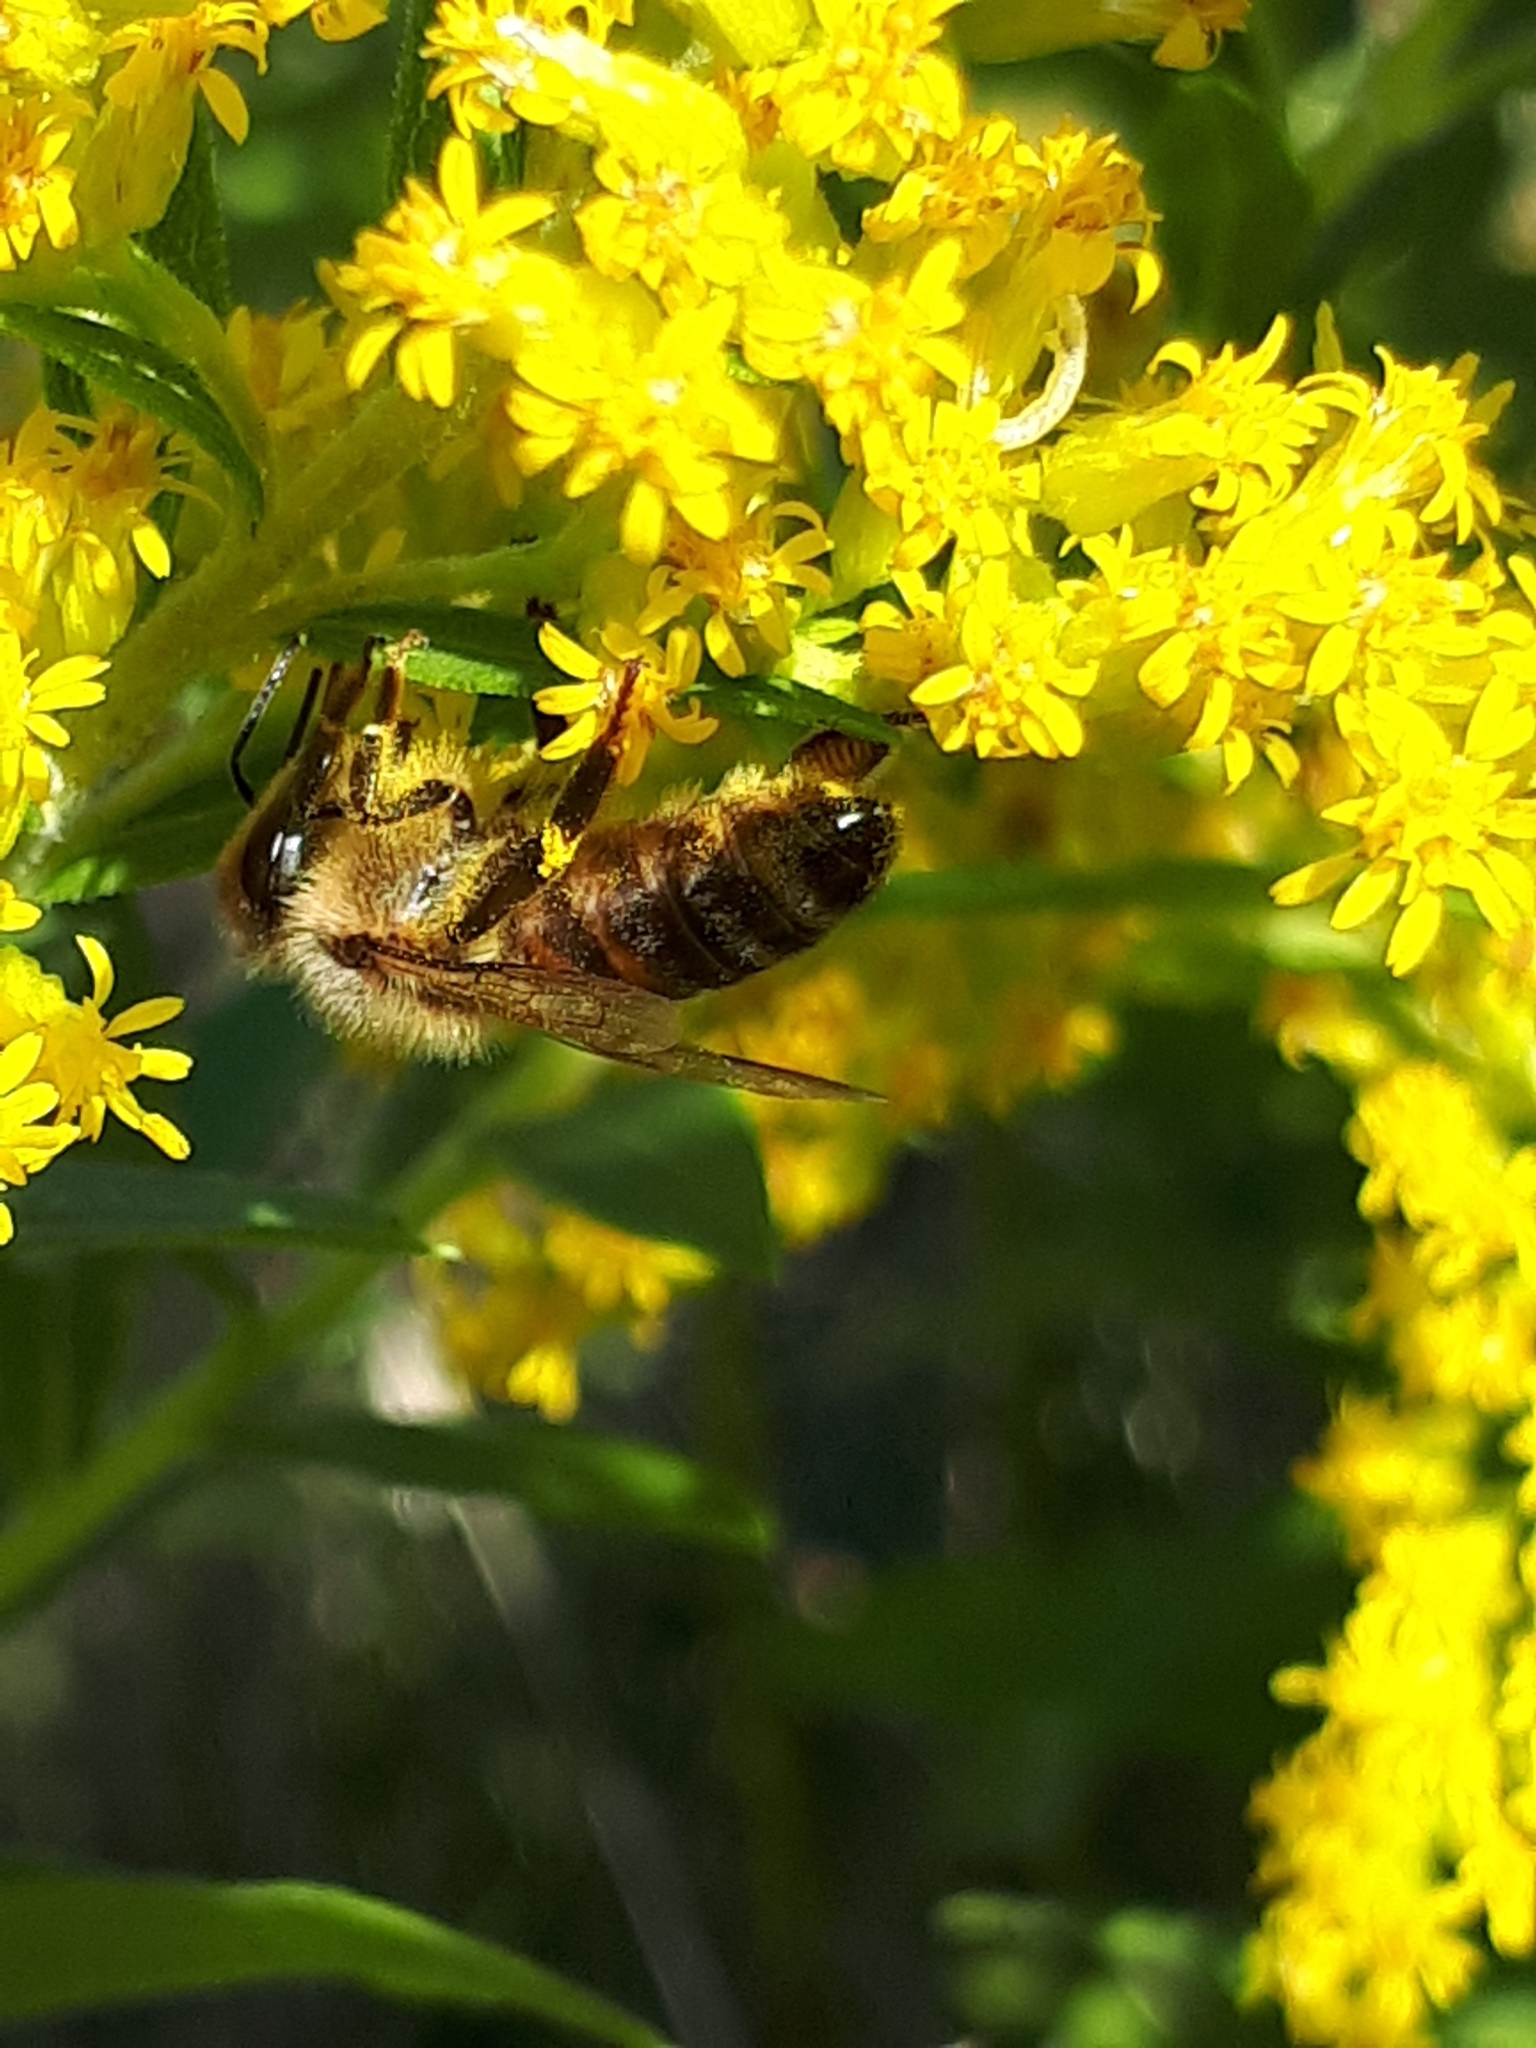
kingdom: Animalia
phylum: Arthropoda
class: Insecta
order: Hymenoptera
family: Apidae
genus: Apis
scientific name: Apis mellifera
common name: Honey bee
